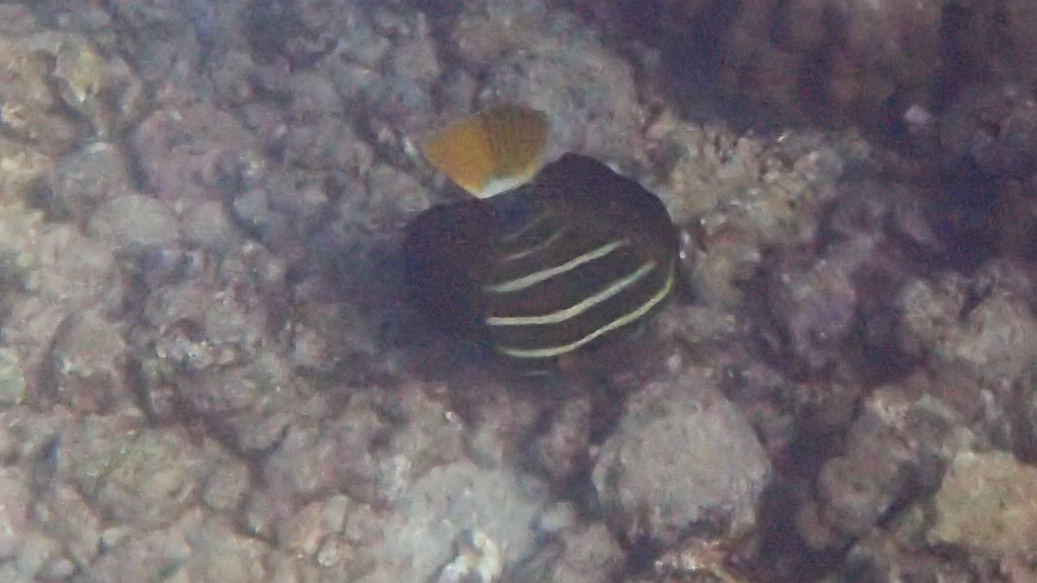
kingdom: Animalia
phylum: Chordata
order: Perciformes
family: Acanthuridae
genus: Zebrasoma
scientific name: Zebrasoma veliferum
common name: Sailfin surgeonfish
